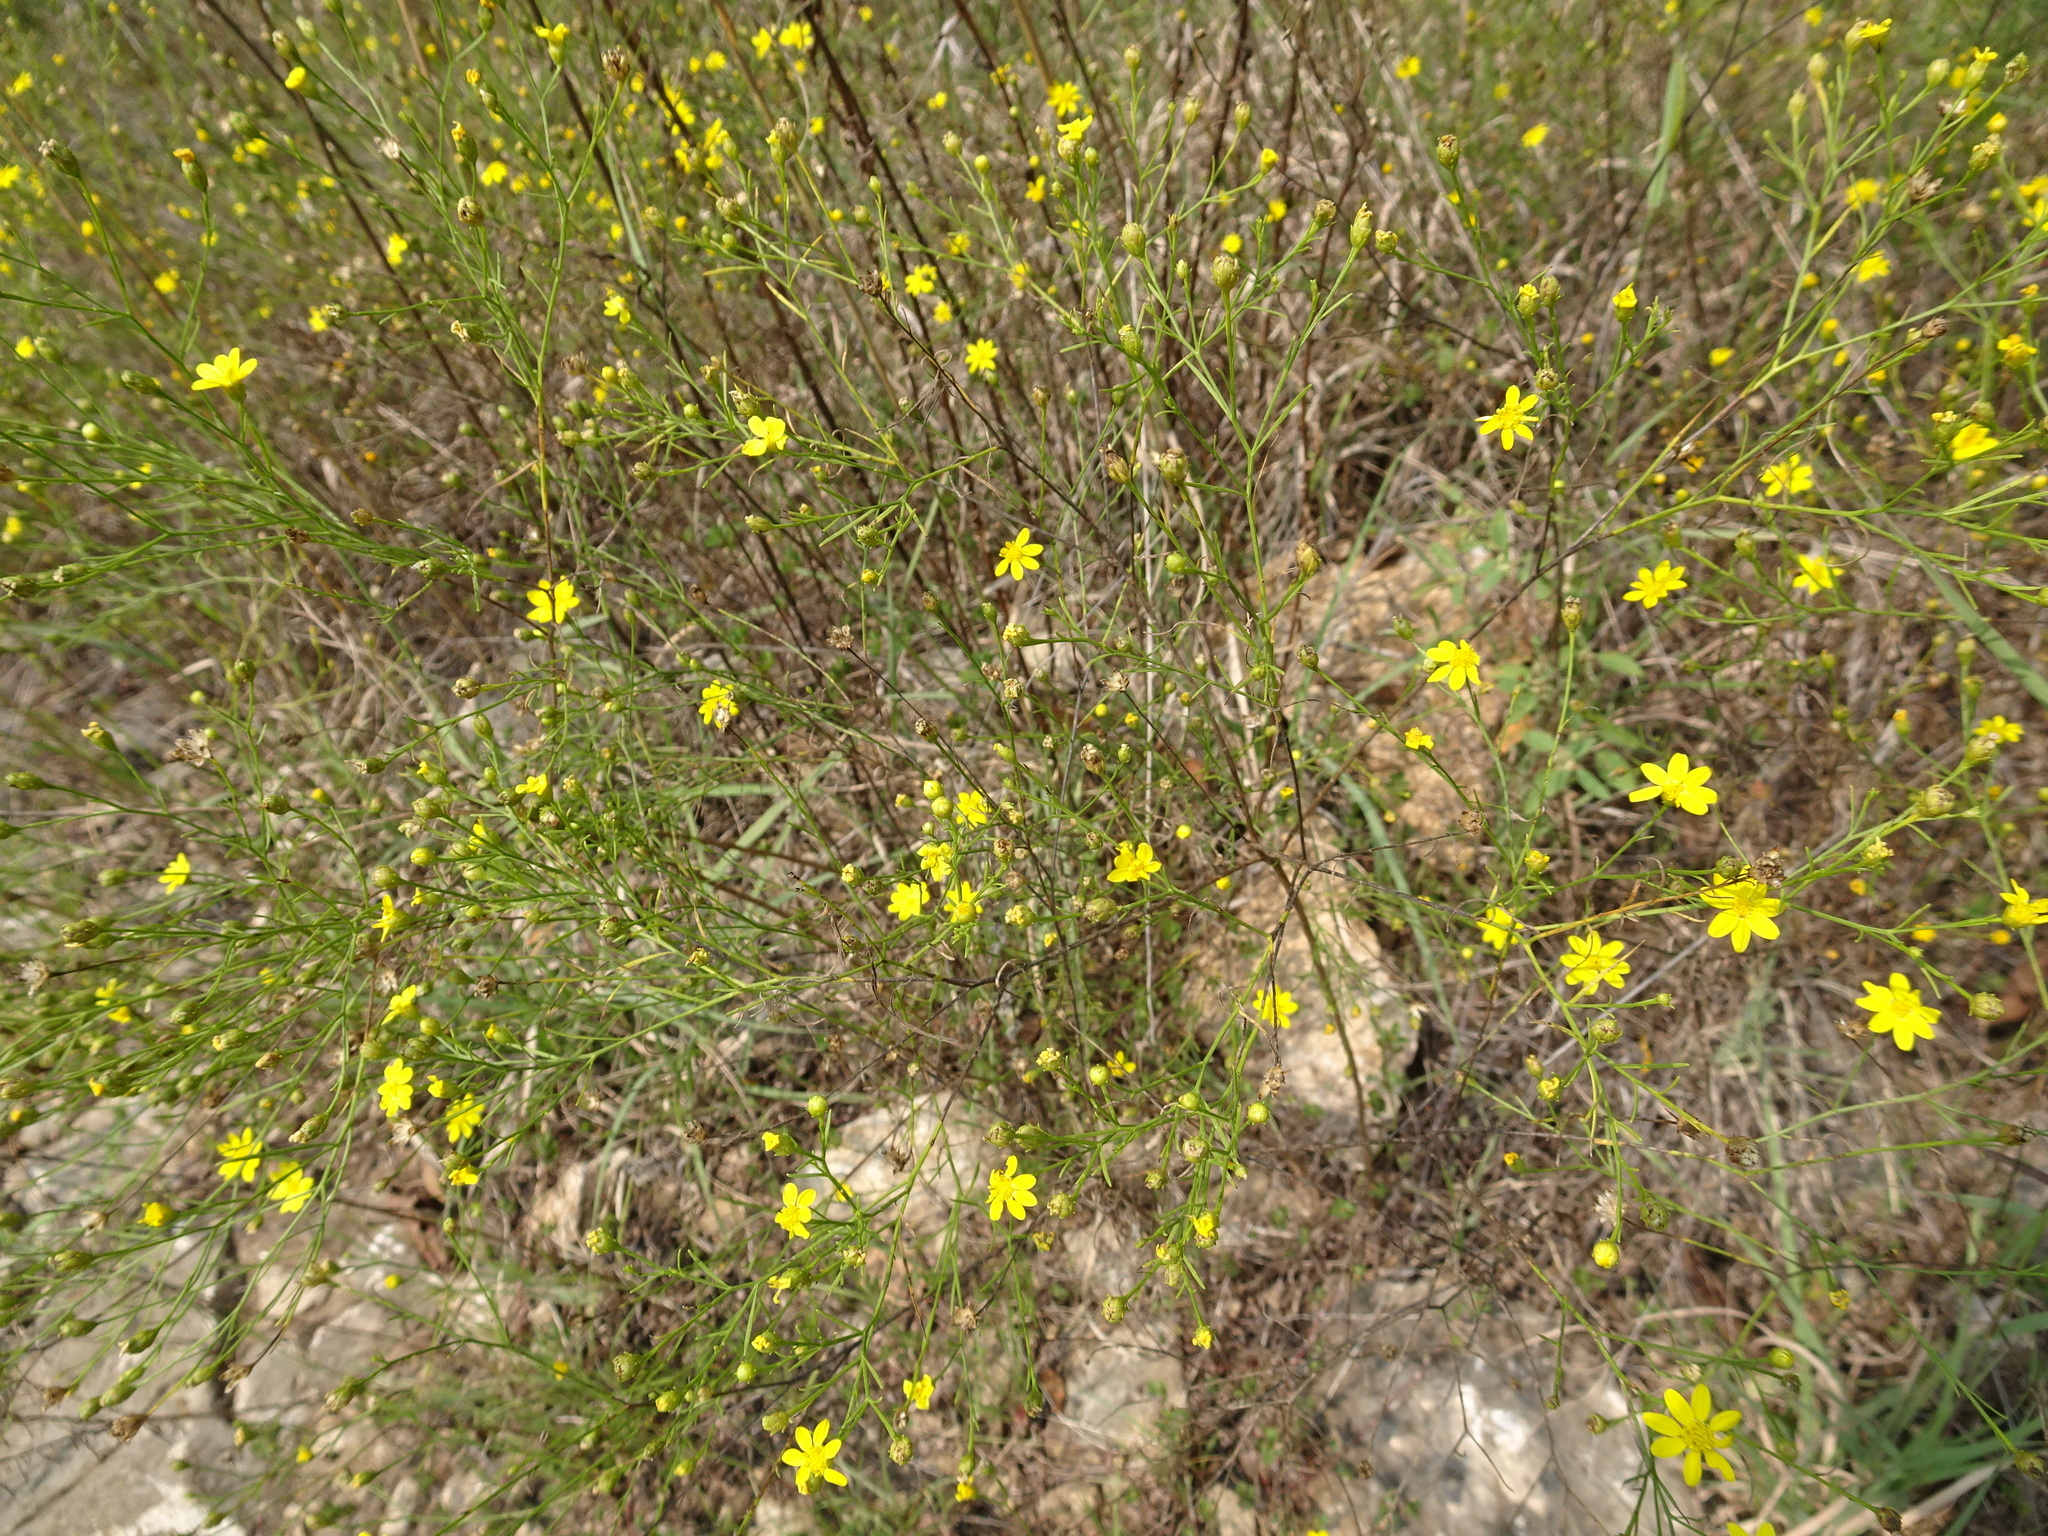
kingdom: Plantae
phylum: Tracheophyta
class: Magnoliopsida
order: Asterales
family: Asteraceae
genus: Amphiachyris
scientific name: Amphiachyris dracunculoides
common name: Broomweed
